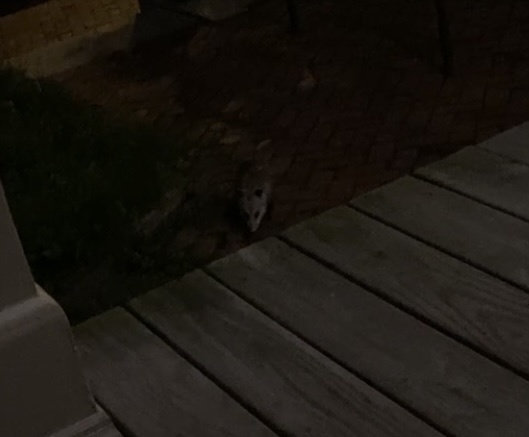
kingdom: Animalia
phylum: Chordata
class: Mammalia
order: Didelphimorphia
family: Didelphidae
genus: Didelphis
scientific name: Didelphis virginiana
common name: Virginia opossum
